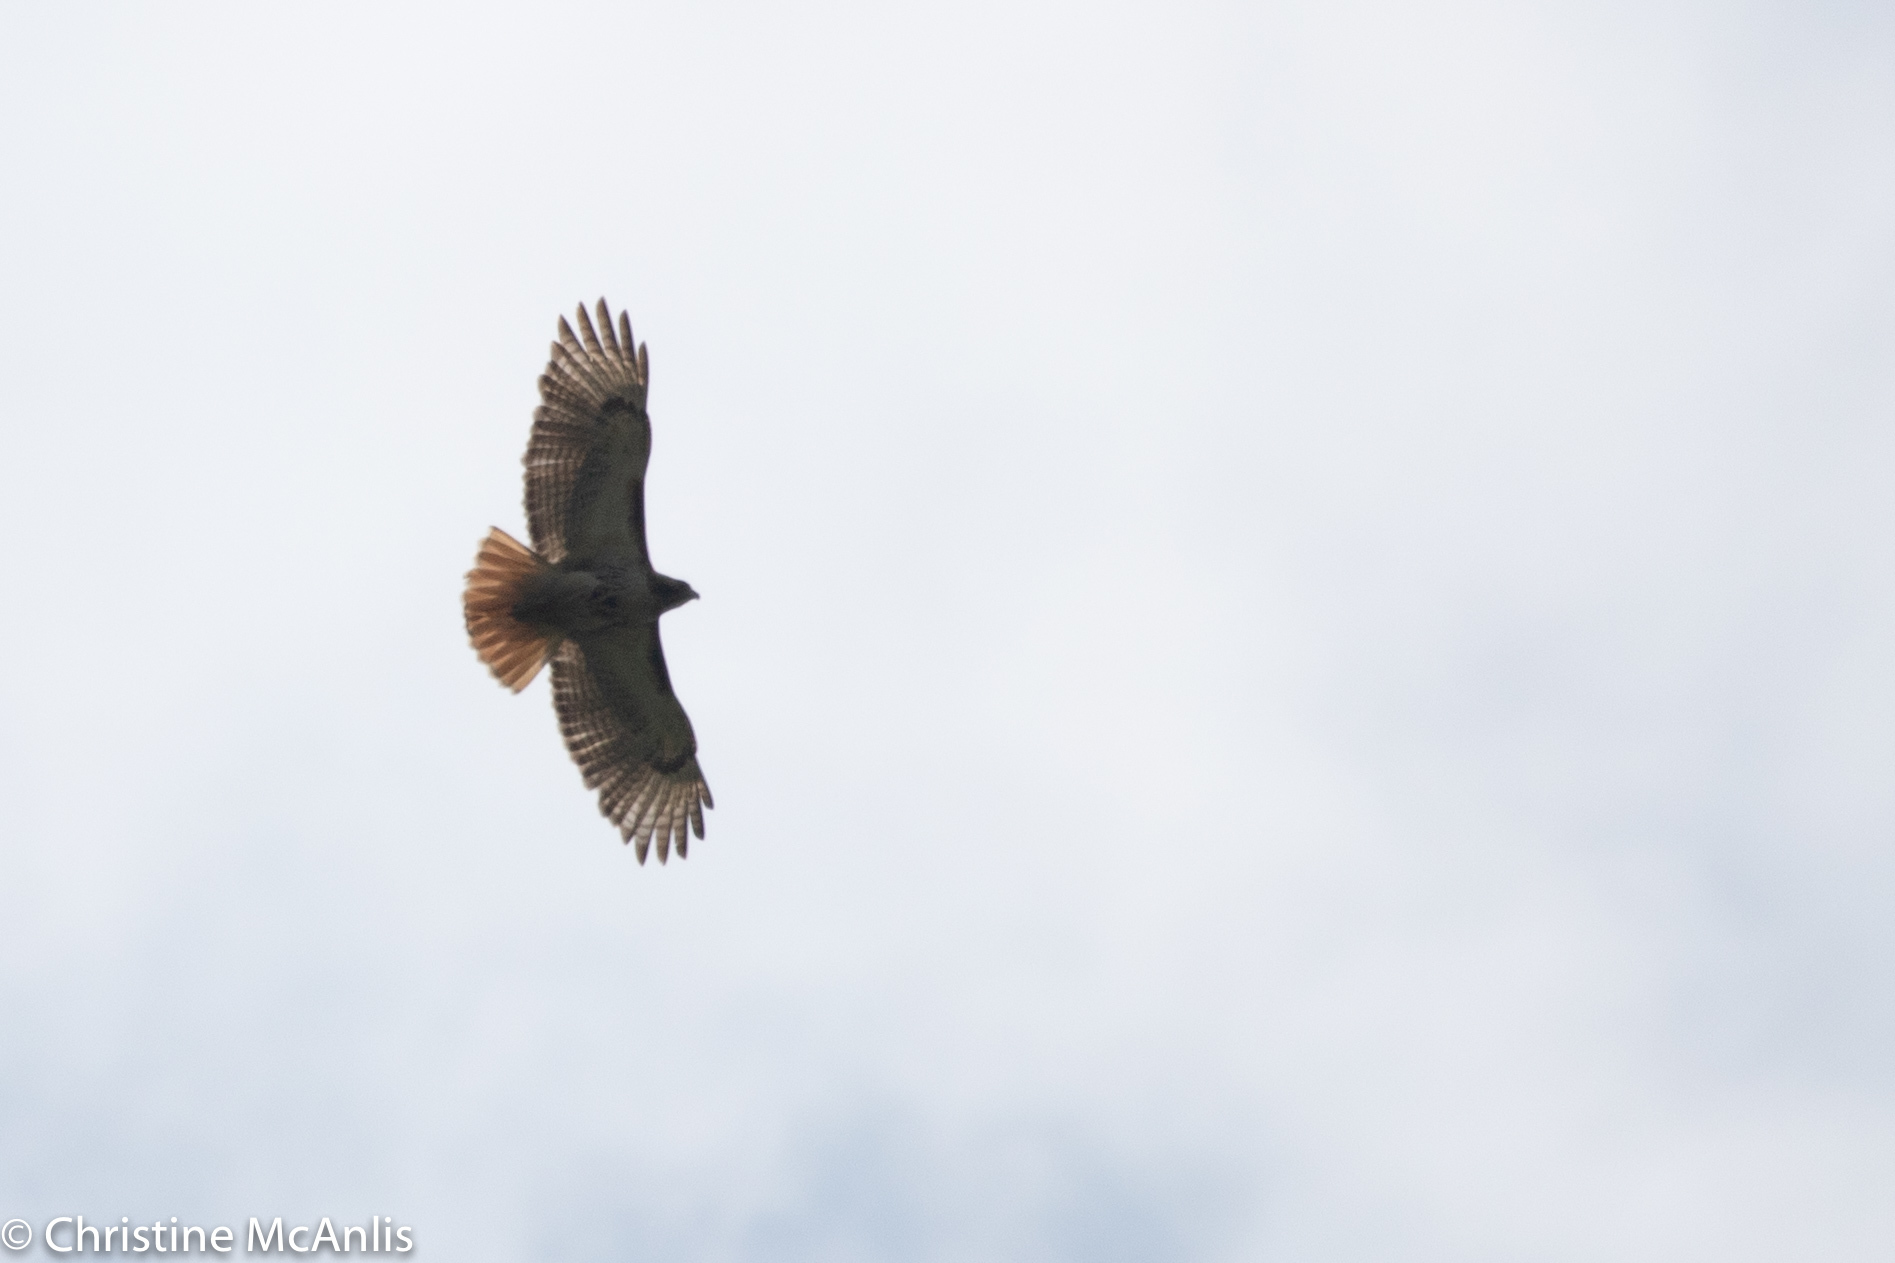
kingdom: Animalia
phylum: Chordata
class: Aves
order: Accipitriformes
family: Accipitridae
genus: Buteo
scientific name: Buteo jamaicensis
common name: Red-tailed hawk
